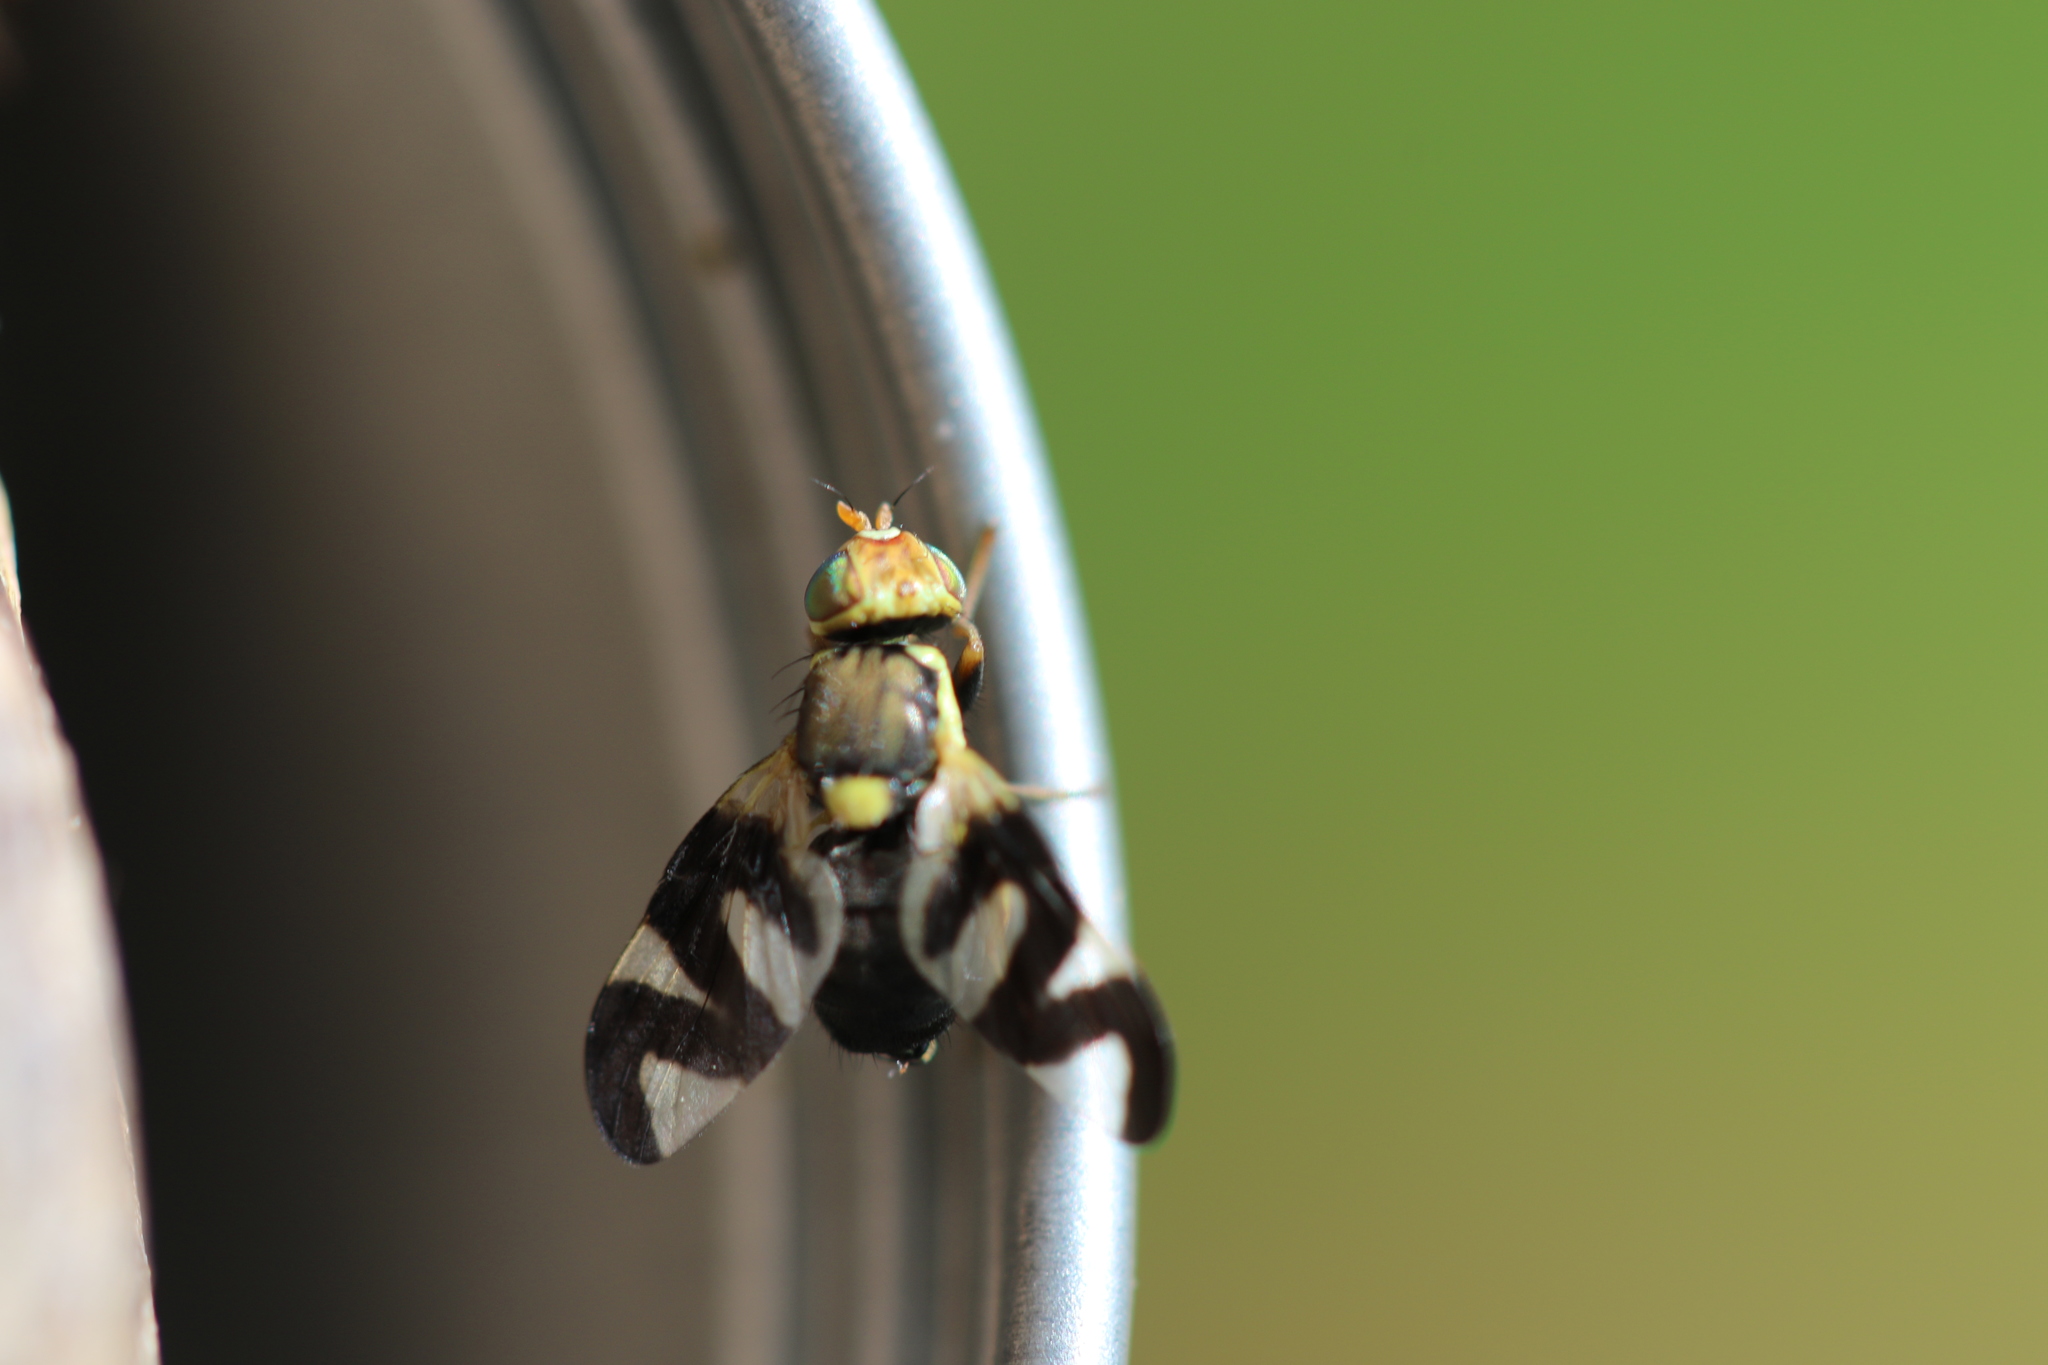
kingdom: Animalia
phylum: Arthropoda
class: Insecta
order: Diptera
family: Tephritidae
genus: Urophora
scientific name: Urophora cardui
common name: Fruit fly
